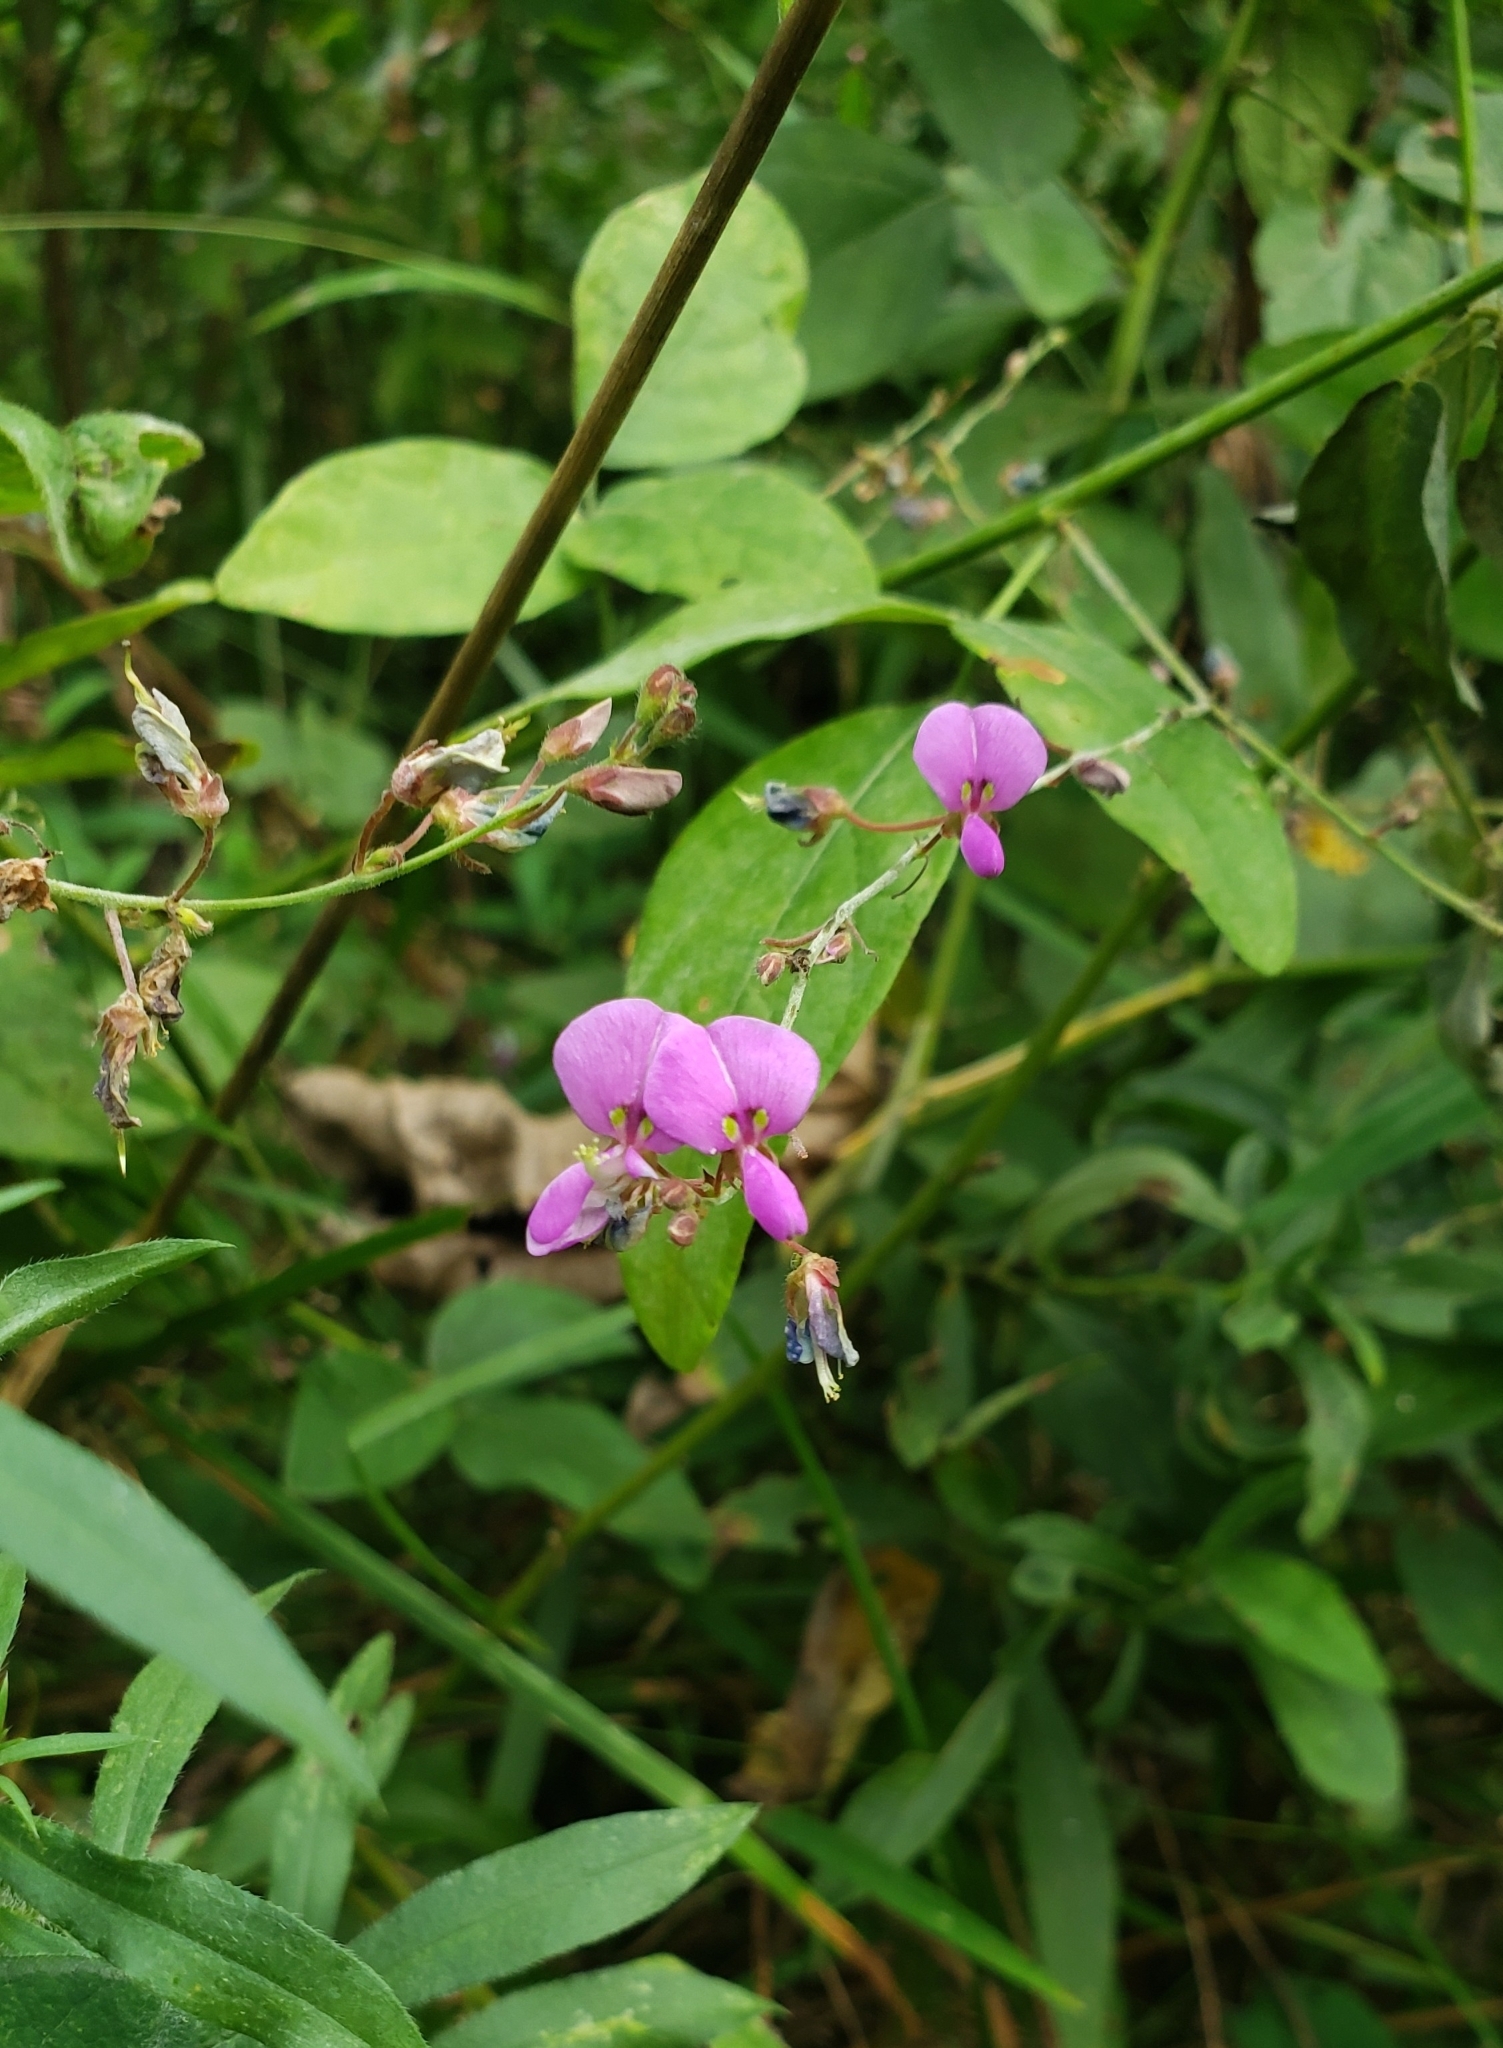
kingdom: Plantae
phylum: Tracheophyta
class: Magnoliopsida
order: Fabales
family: Fabaceae
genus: Desmodium
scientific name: Desmodium paniculatum
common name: Panicled tick-clover
